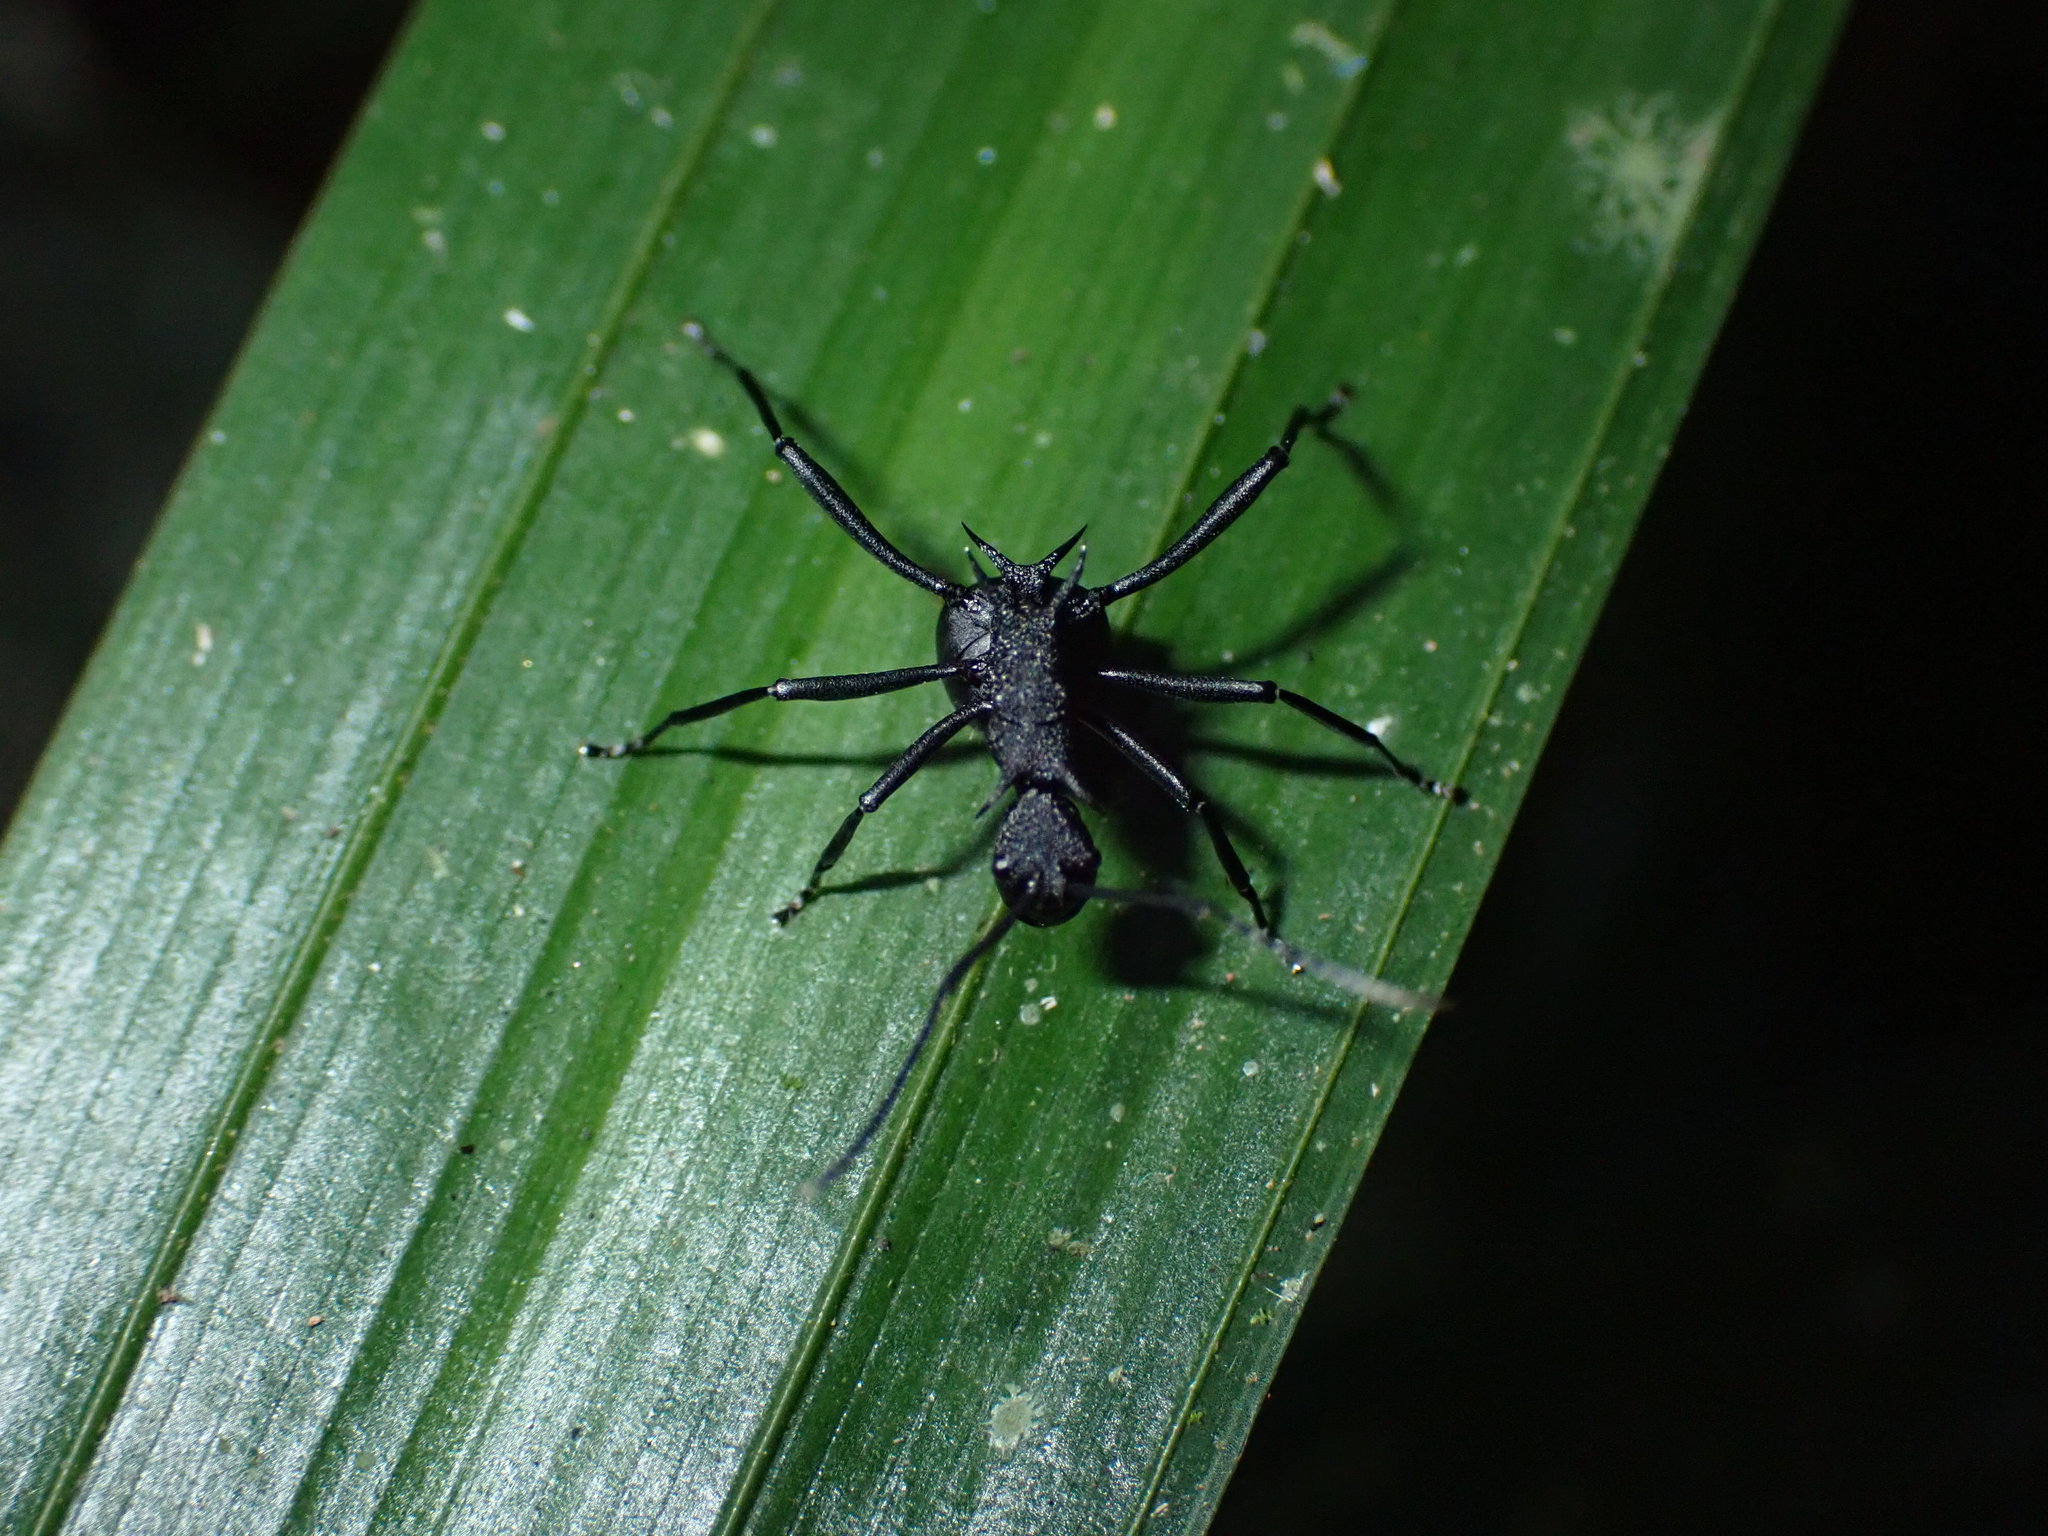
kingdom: Animalia
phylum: Arthropoda
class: Insecta
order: Hymenoptera
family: Formicidae
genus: Polyrhachis
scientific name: Polyrhachis armata
